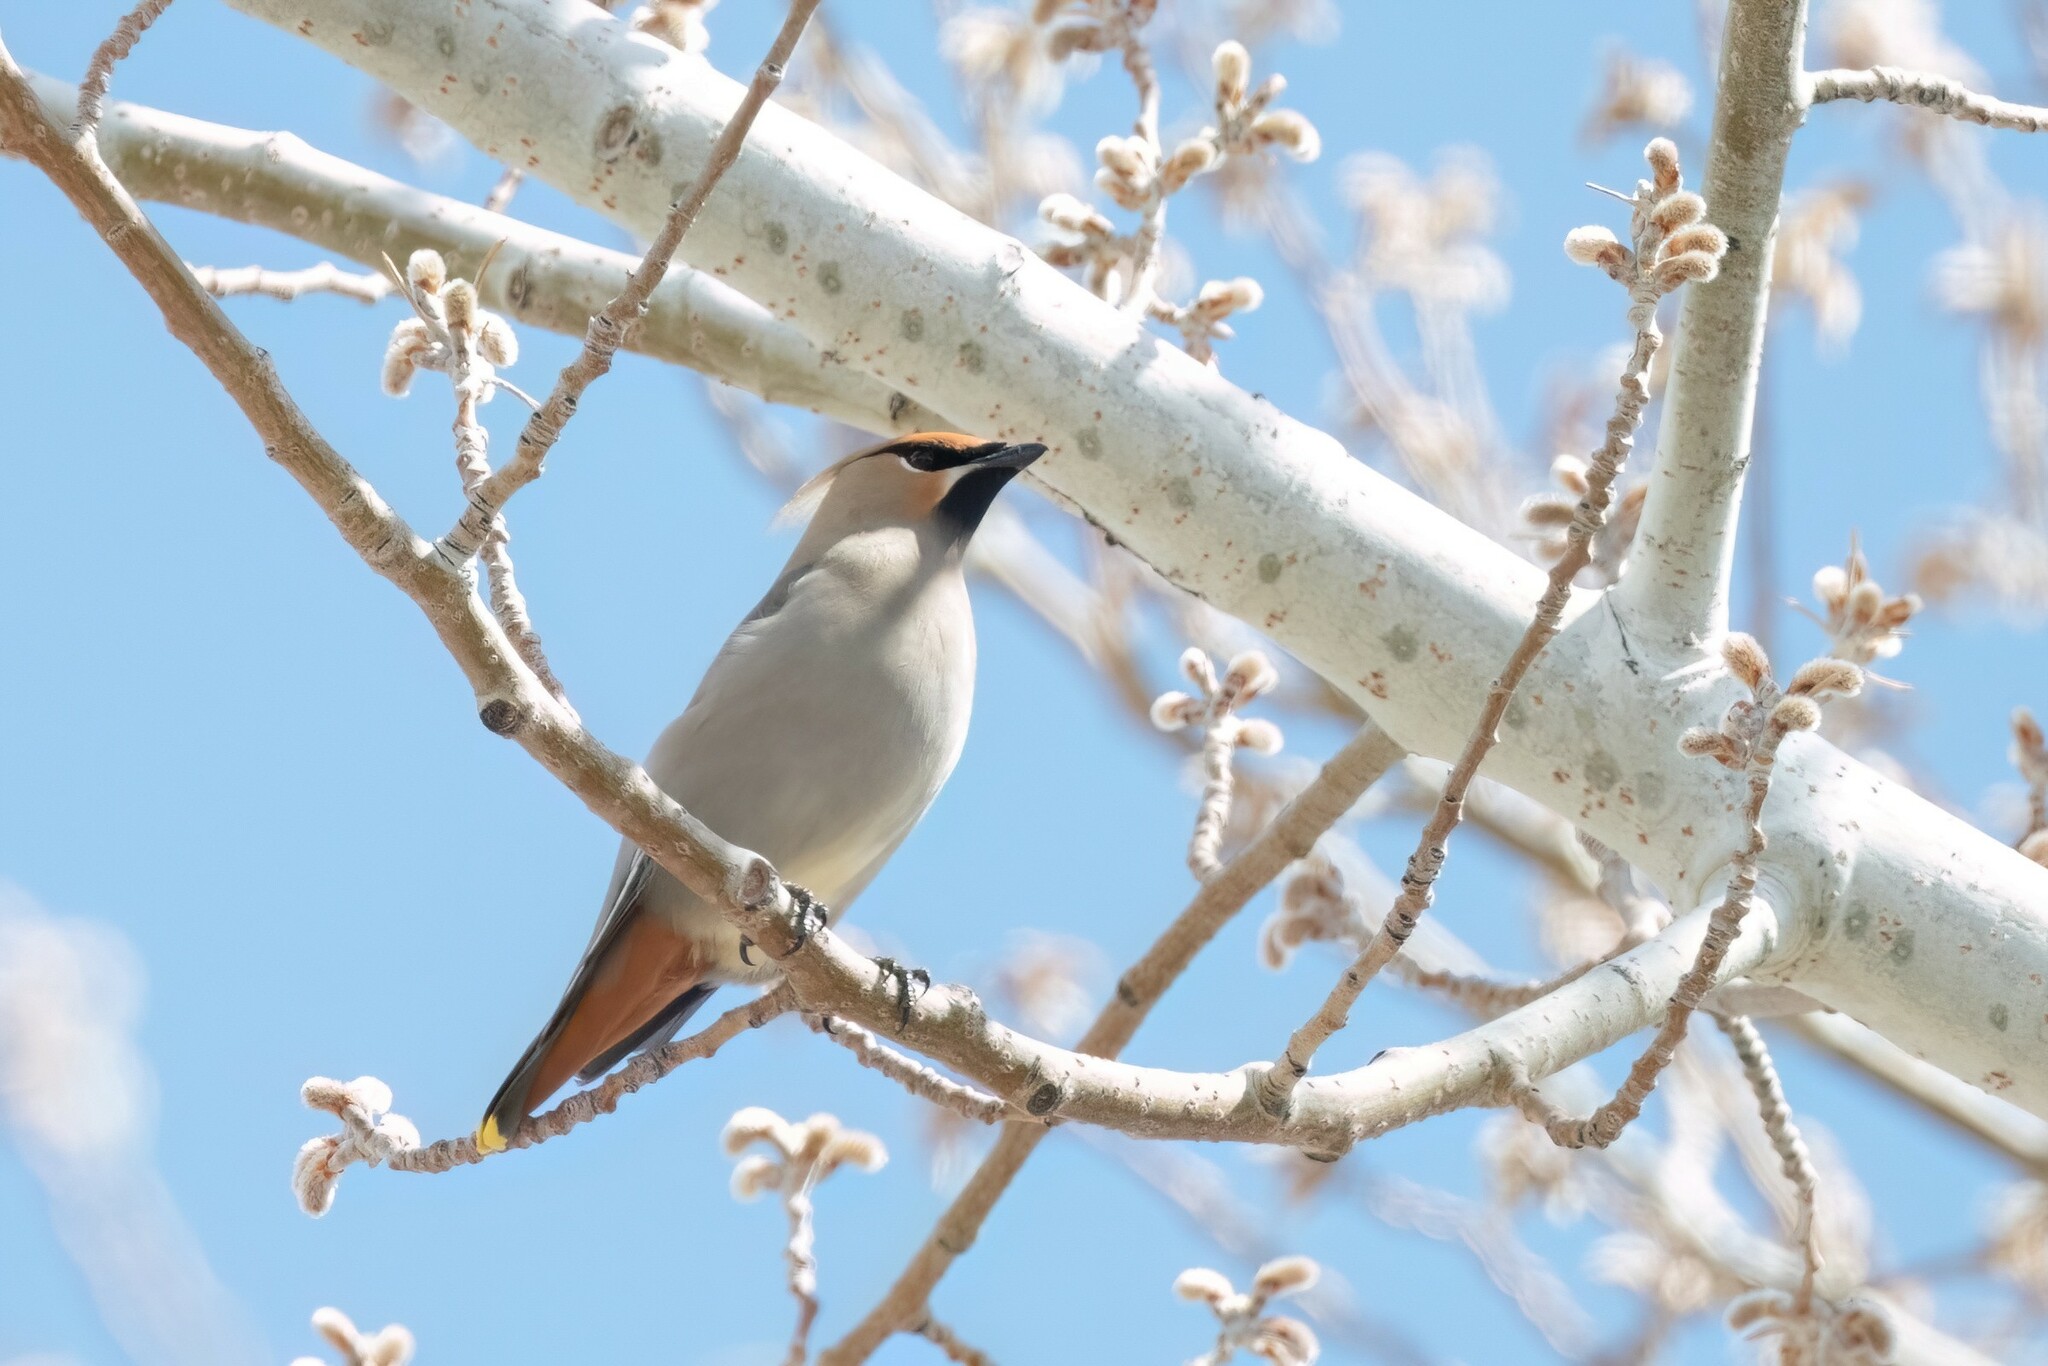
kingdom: Animalia
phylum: Chordata
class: Aves
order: Passeriformes
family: Bombycillidae
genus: Bombycilla
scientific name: Bombycilla garrulus
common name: Bohemian waxwing
